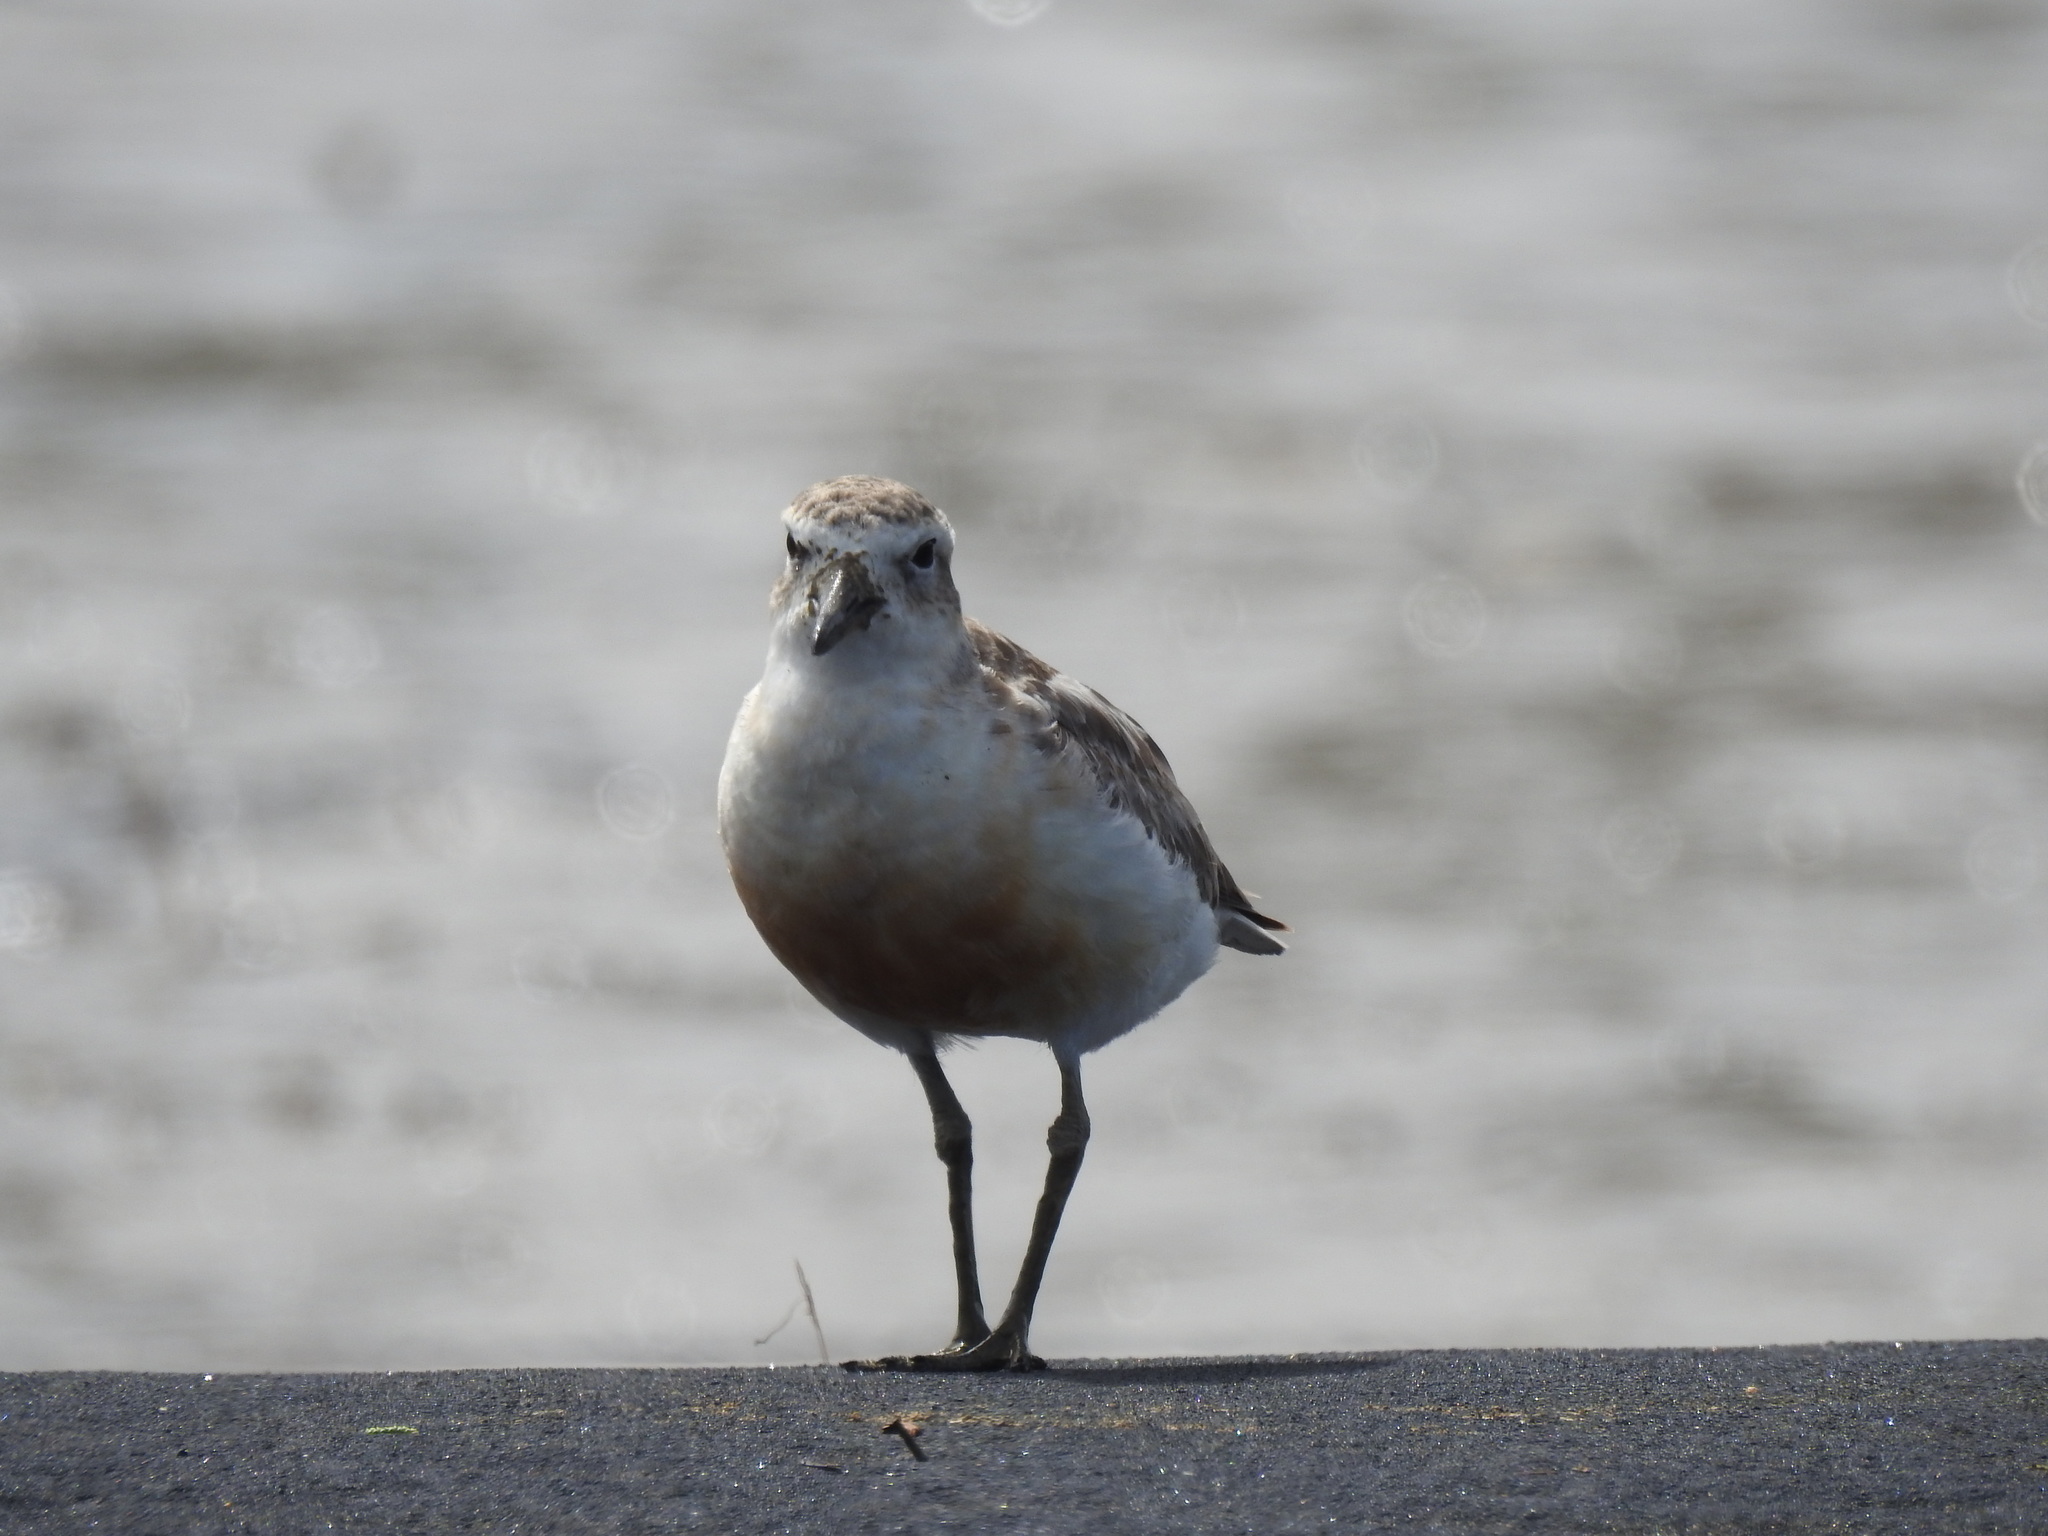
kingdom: Animalia
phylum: Chordata
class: Aves
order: Charadriiformes
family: Charadriidae
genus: Anarhynchus
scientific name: Anarhynchus
